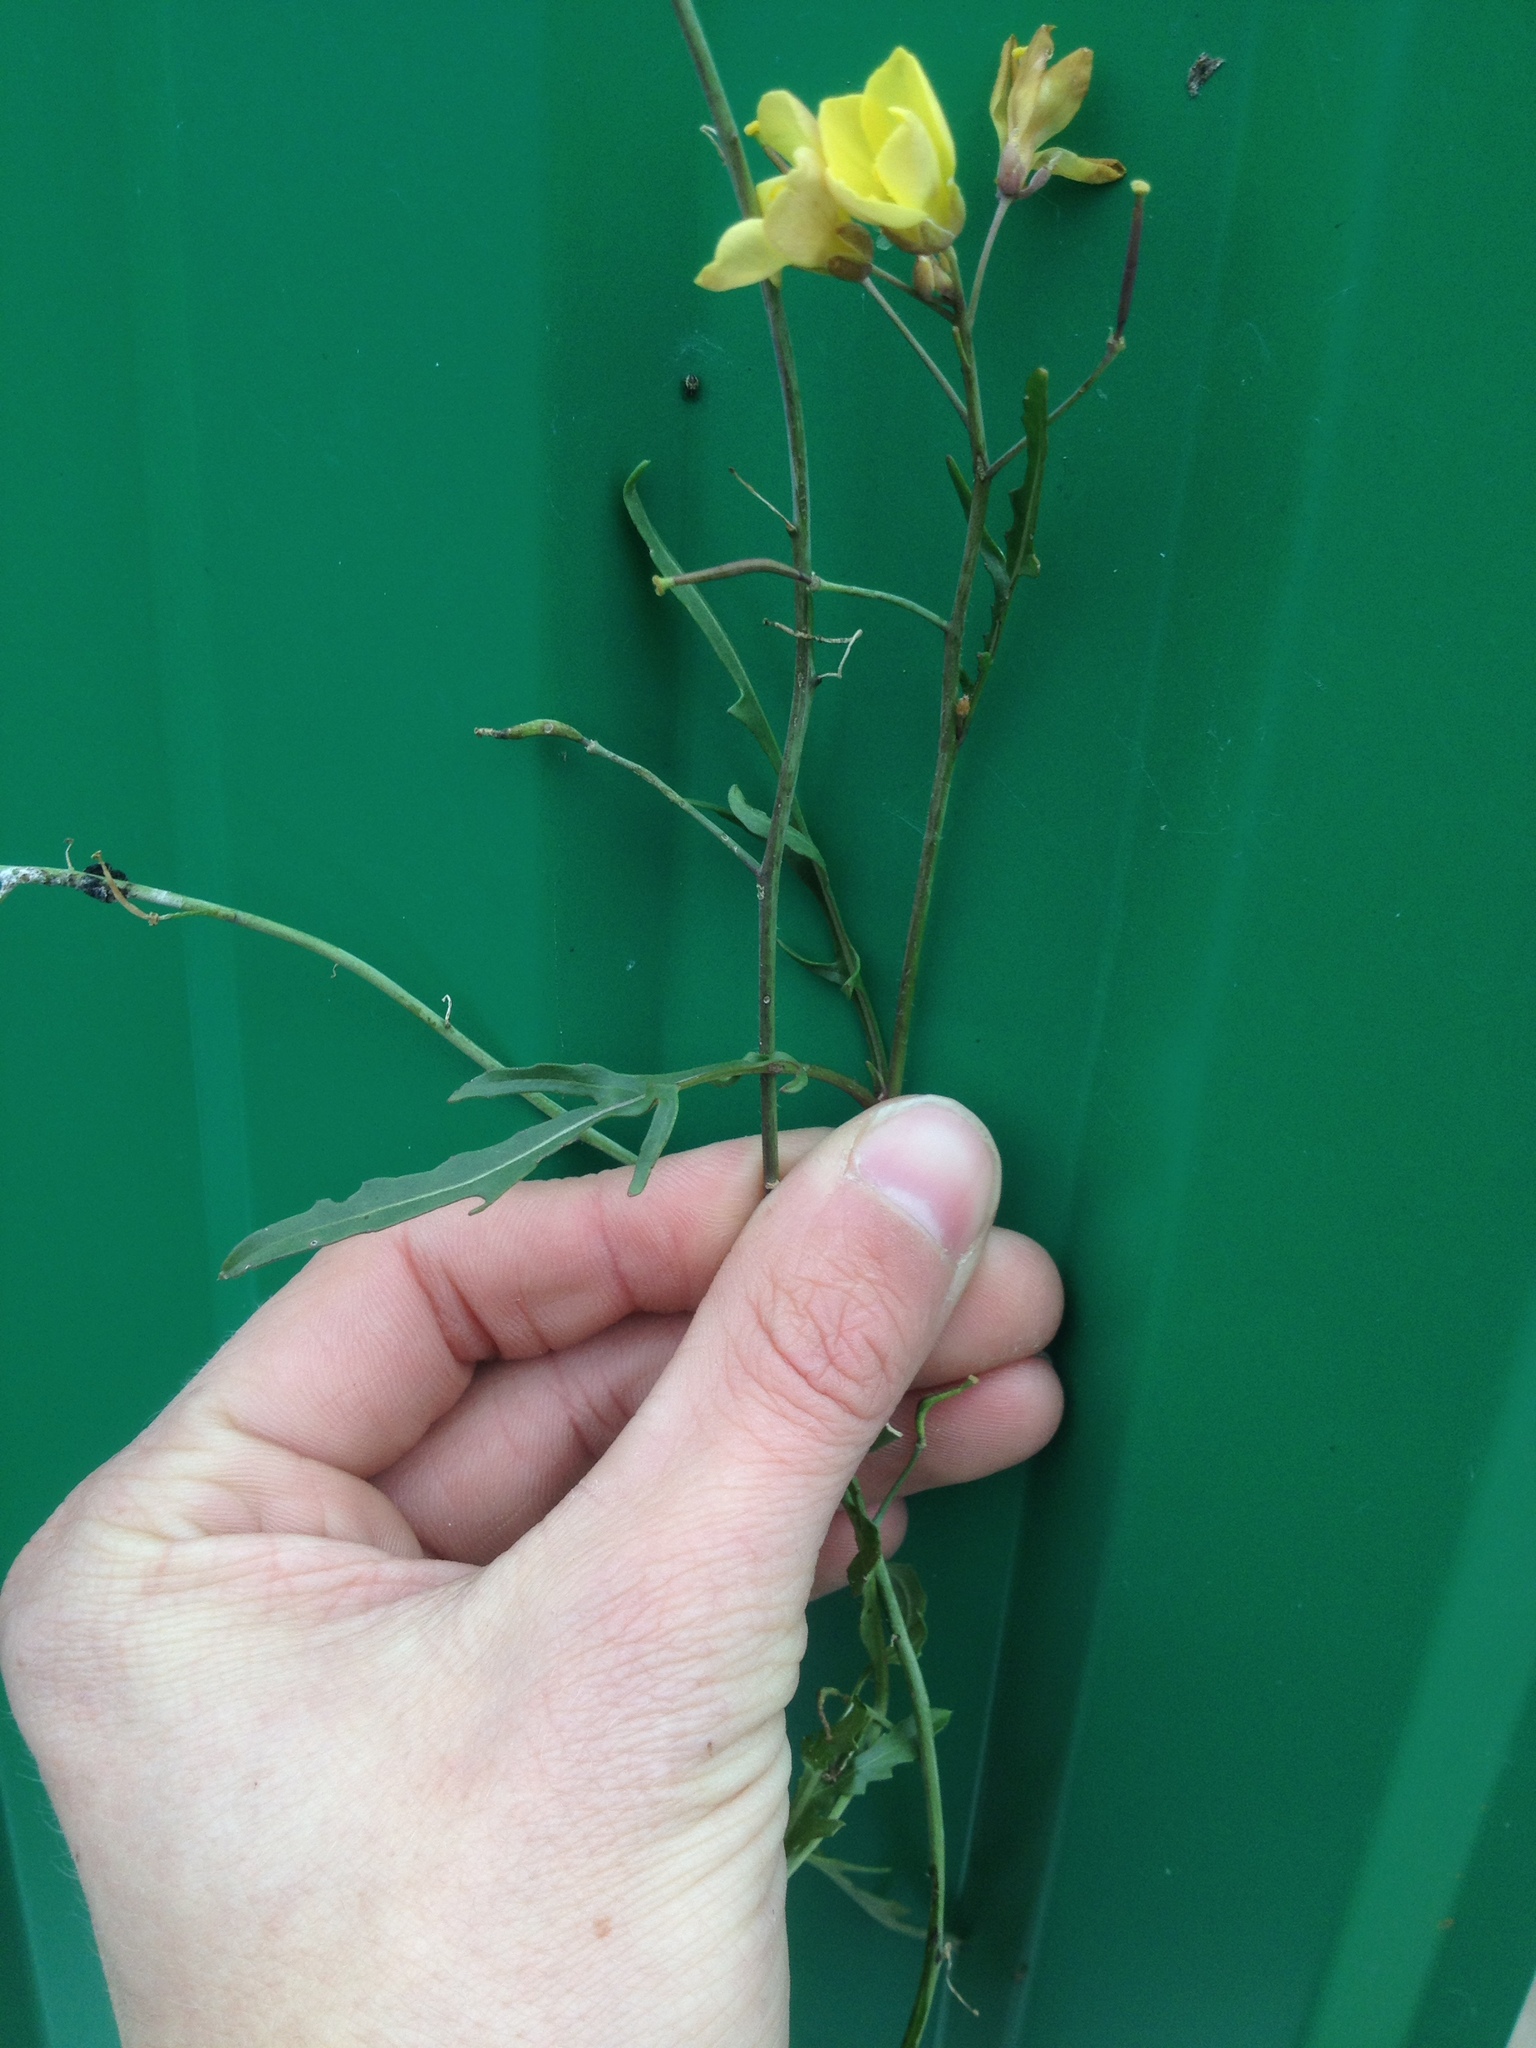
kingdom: Plantae
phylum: Tracheophyta
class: Magnoliopsida
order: Brassicales
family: Brassicaceae
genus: Diplotaxis
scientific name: Diplotaxis tenuifolia
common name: Perennial wall-rocket
